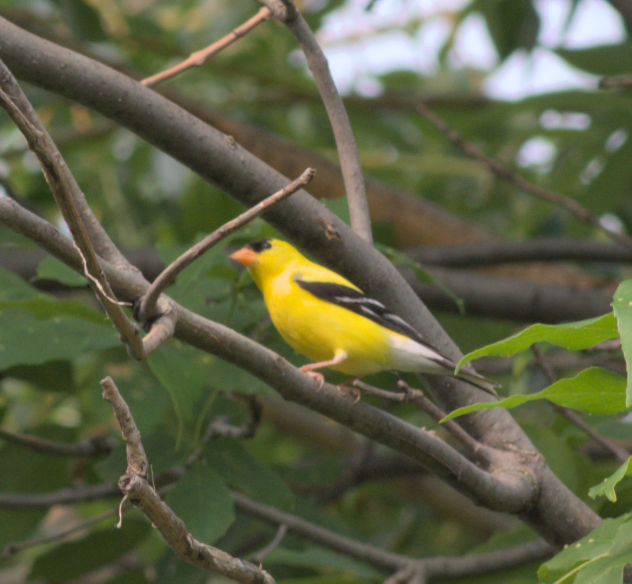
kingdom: Animalia
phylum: Chordata
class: Aves
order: Passeriformes
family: Fringillidae
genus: Spinus
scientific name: Spinus tristis
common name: American goldfinch
